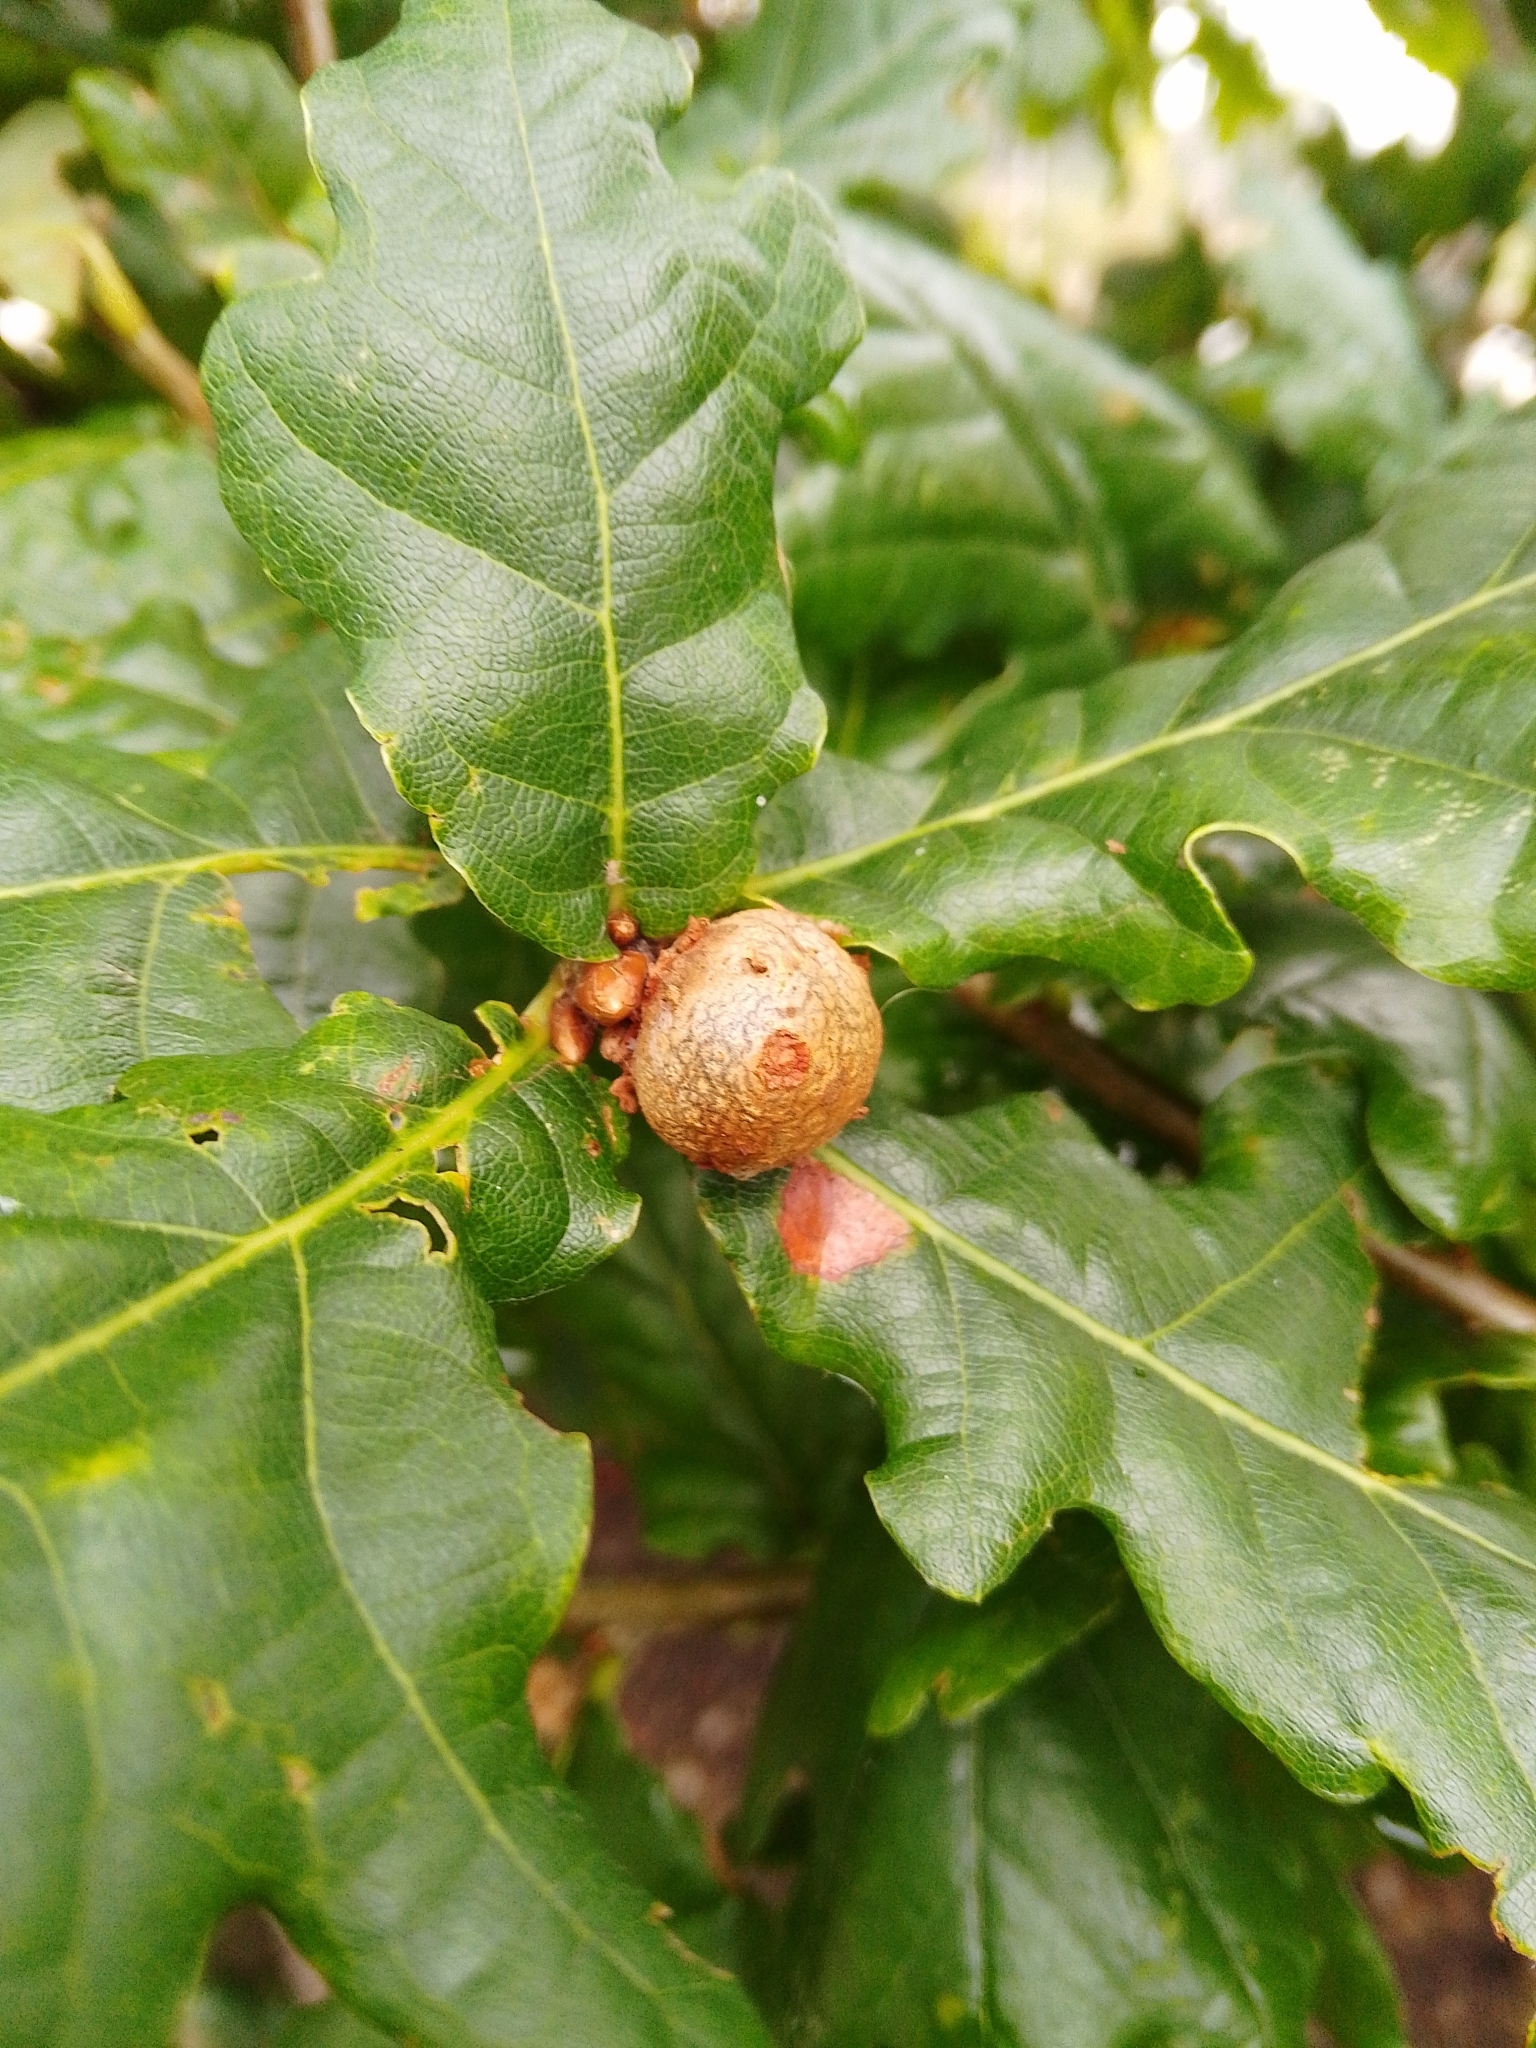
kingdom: Animalia
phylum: Arthropoda
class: Insecta
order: Hymenoptera
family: Cynipidae
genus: Andricus
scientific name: Andricus lignicolus
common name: Cola-nut gall
